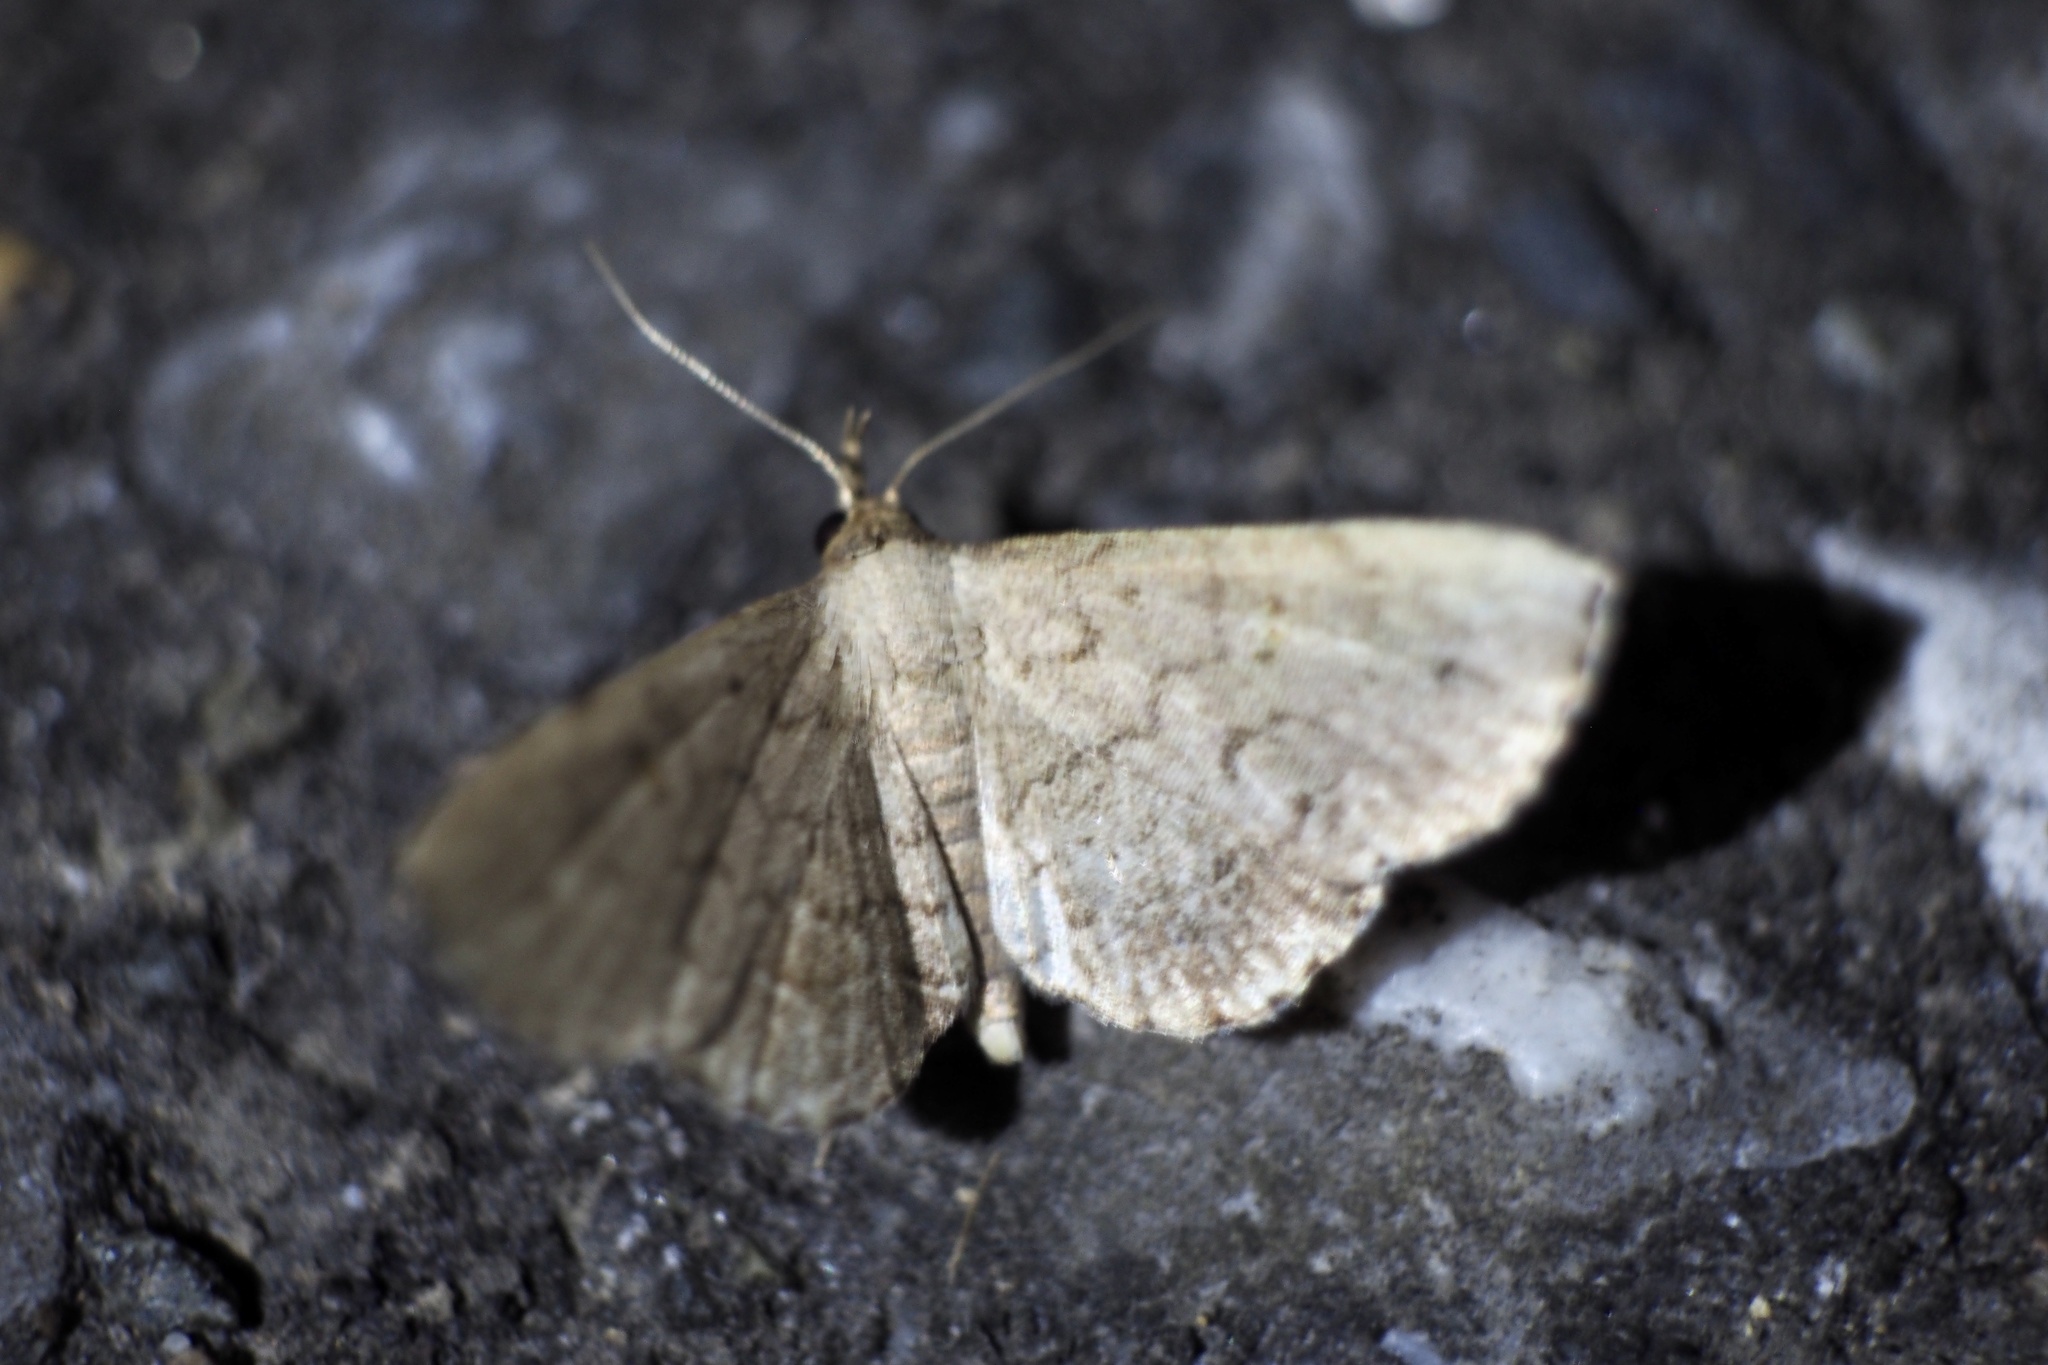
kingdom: Animalia
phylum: Arthropoda
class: Insecta
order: Lepidoptera
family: Erebidae
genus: Herminia
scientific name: Herminia fentoni
